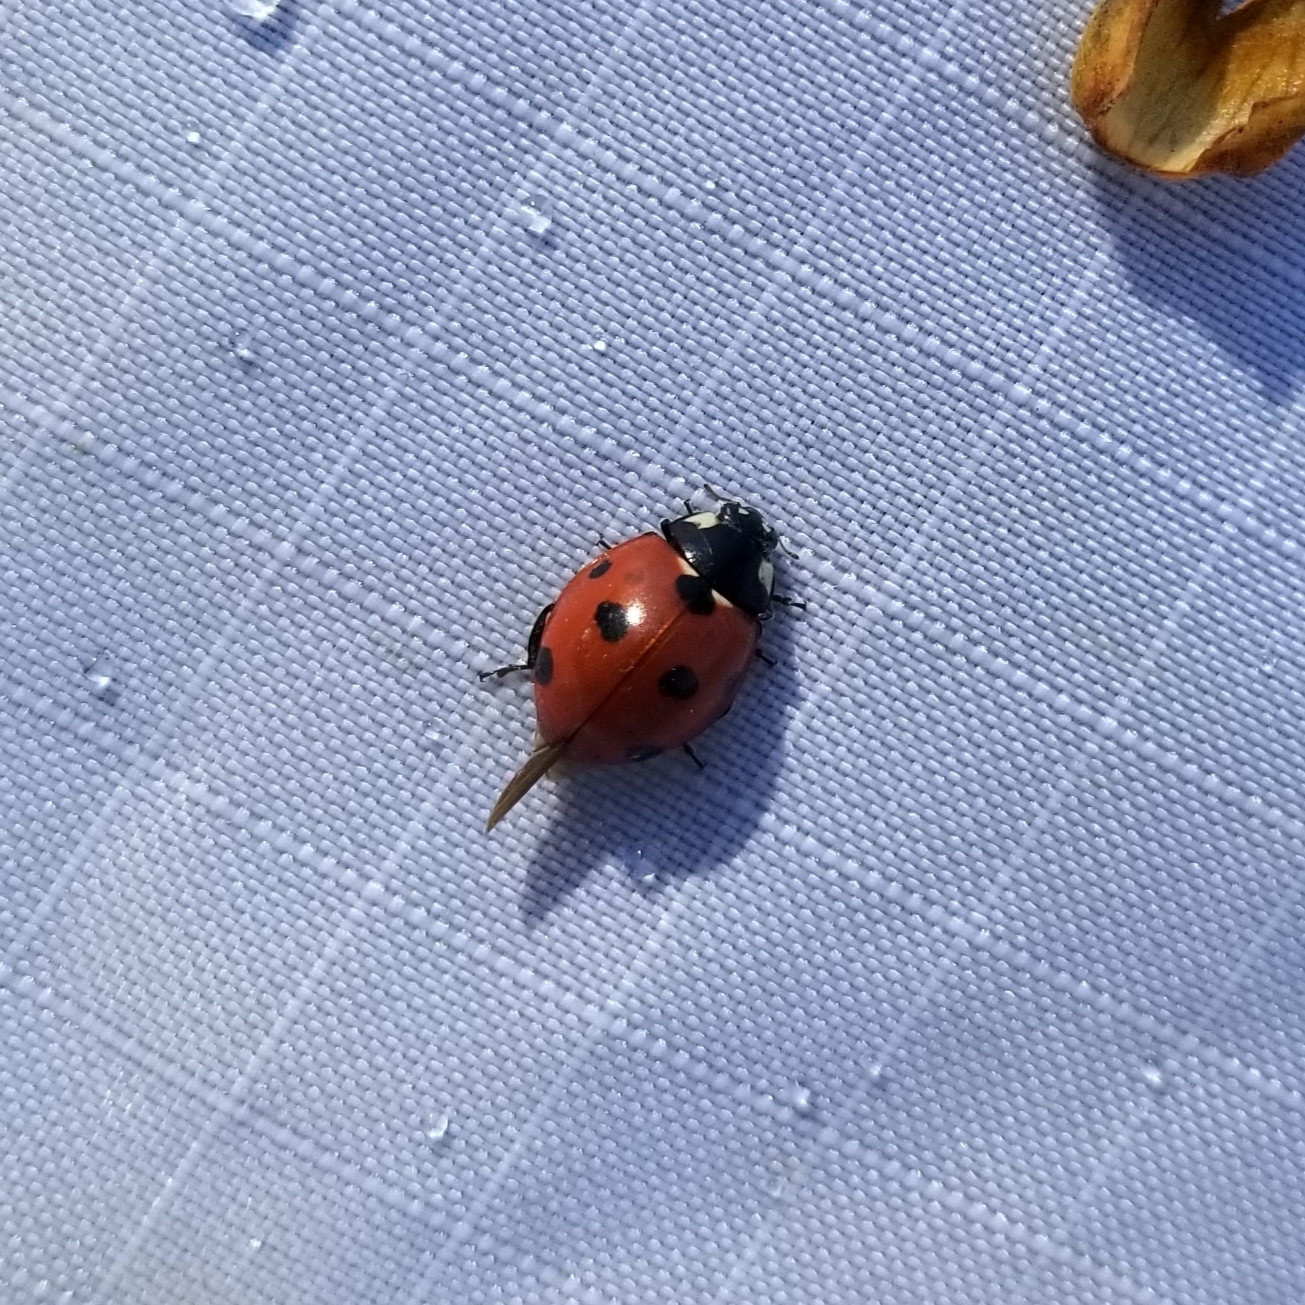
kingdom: Animalia
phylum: Arthropoda
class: Insecta
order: Coleoptera
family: Coccinellidae
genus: Coccinella
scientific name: Coccinella septempunctata
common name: Sevenspotted lady beetle
